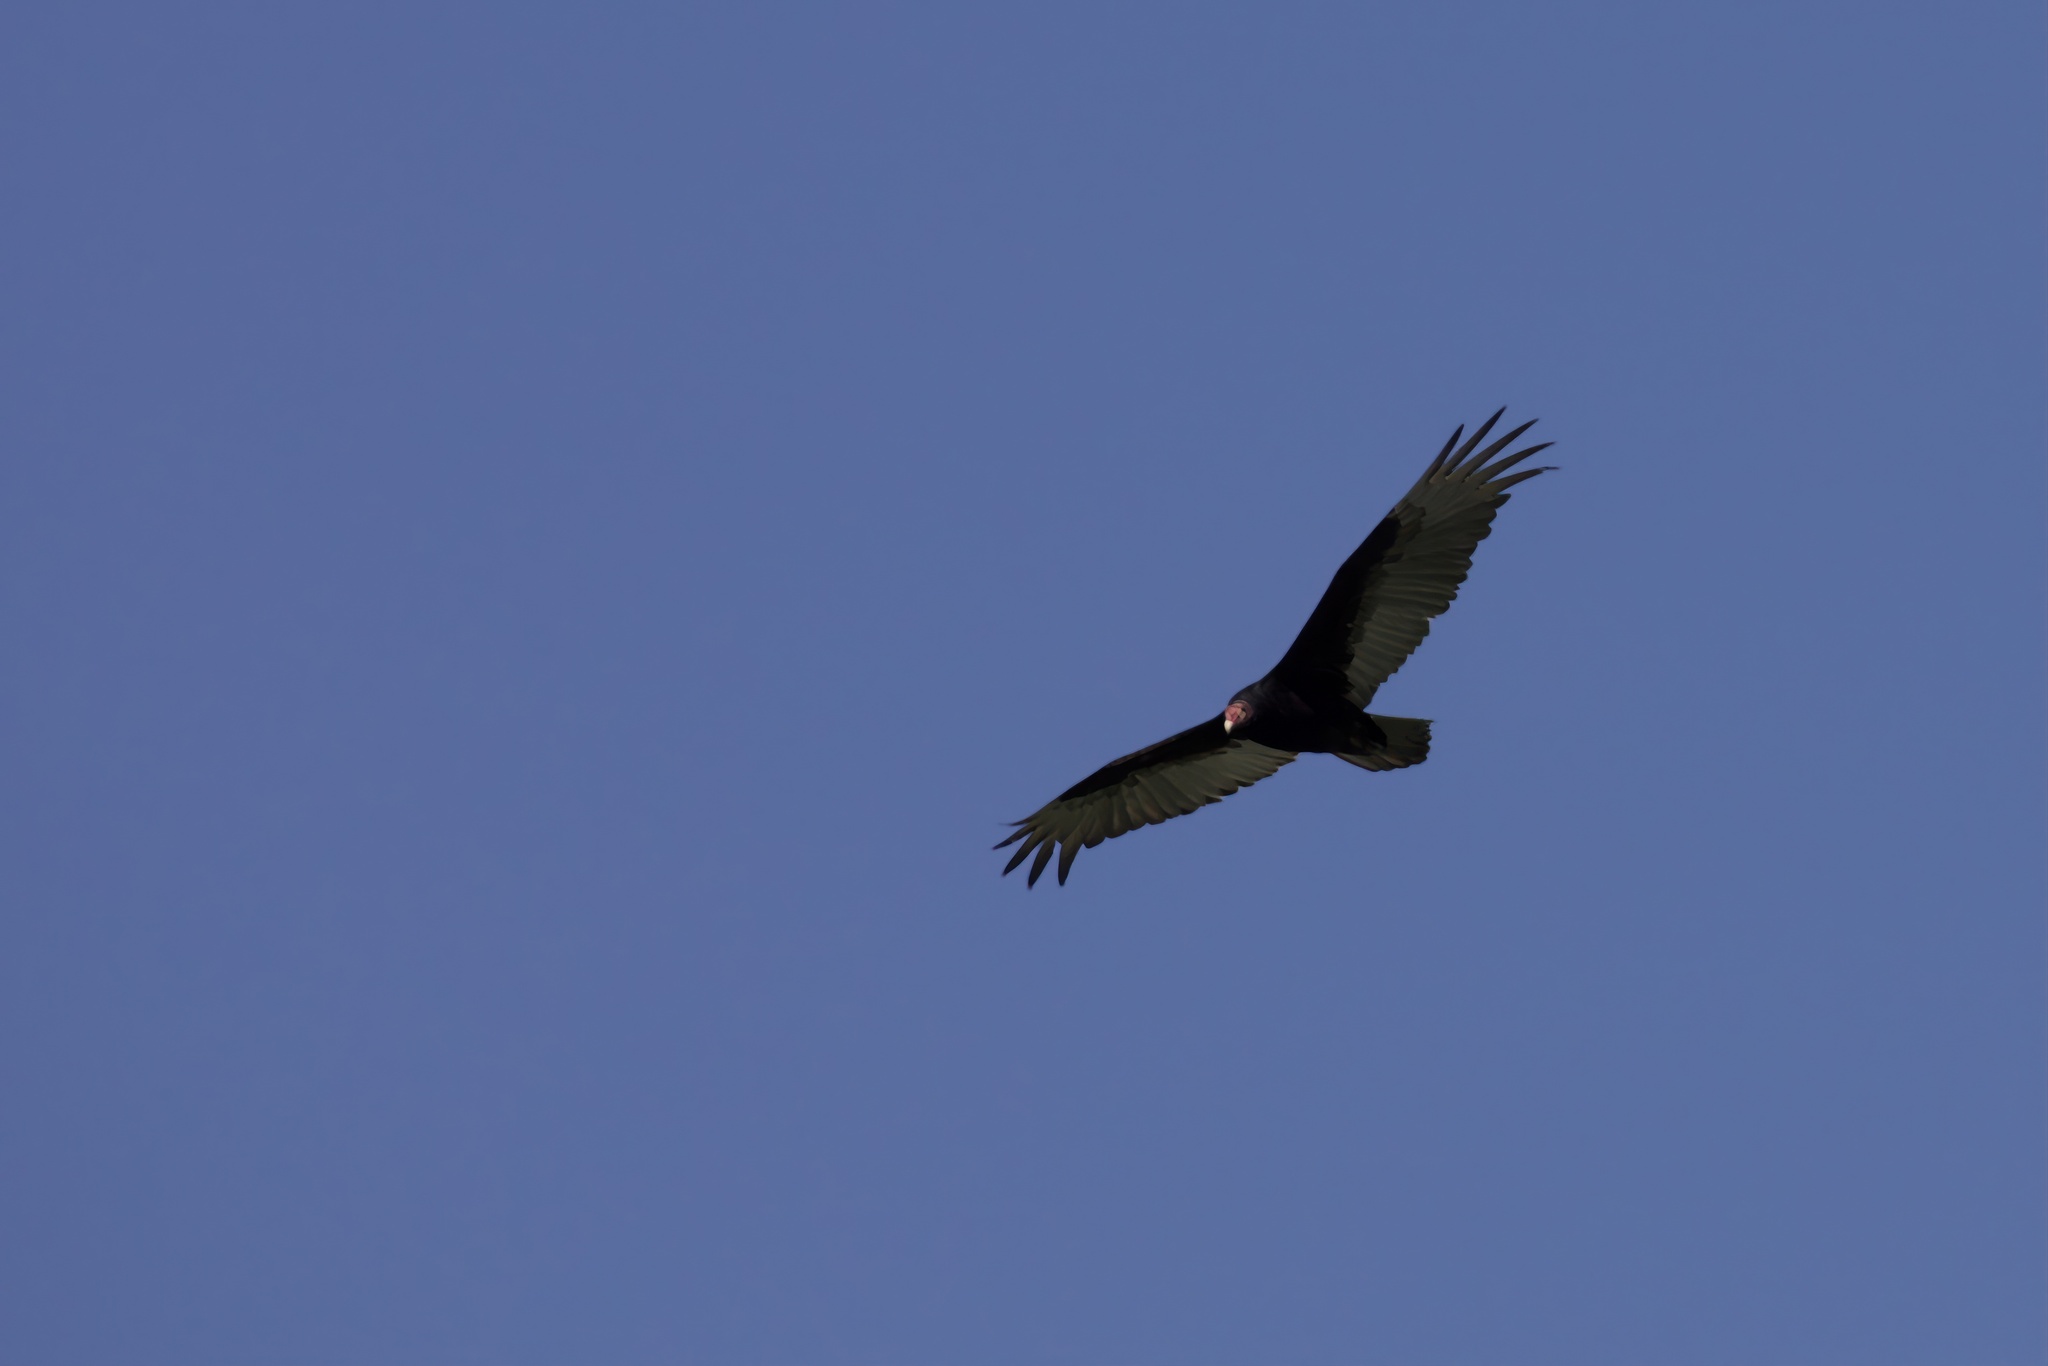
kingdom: Animalia
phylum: Chordata
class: Aves
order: Accipitriformes
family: Cathartidae
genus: Cathartes
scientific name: Cathartes aura
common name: Turkey vulture
